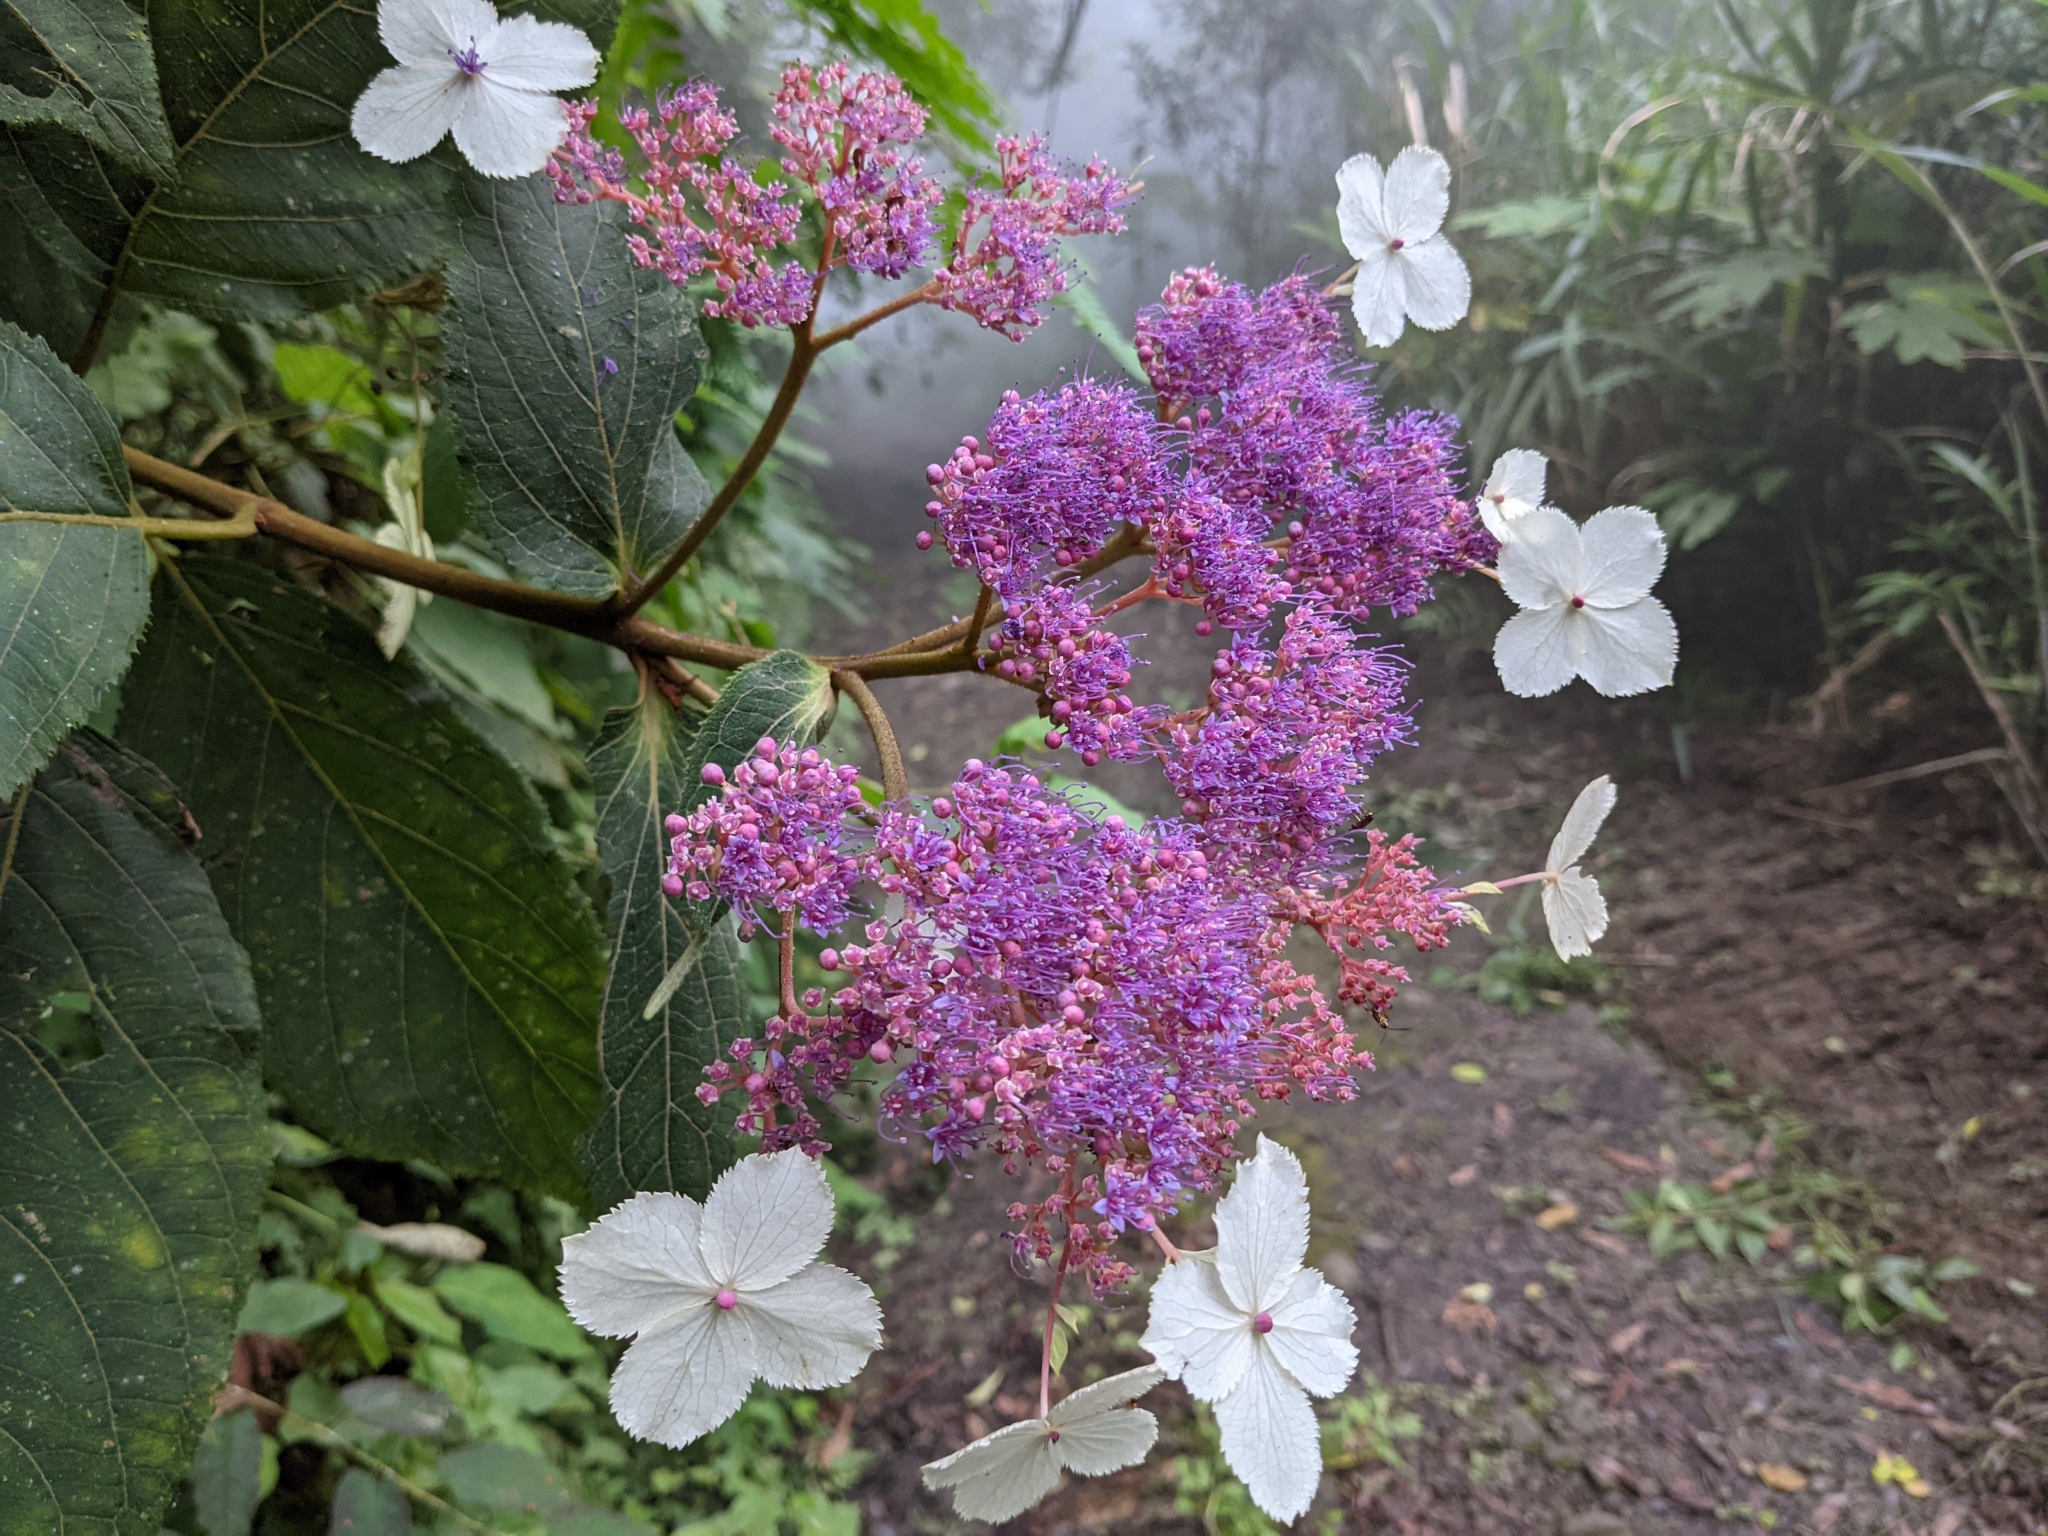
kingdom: Plantae
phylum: Tracheophyta
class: Magnoliopsida
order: Cornales
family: Hydrangeaceae
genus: Hydrangea
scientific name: Hydrangea aspera
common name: Rough-leaf hydrangea
